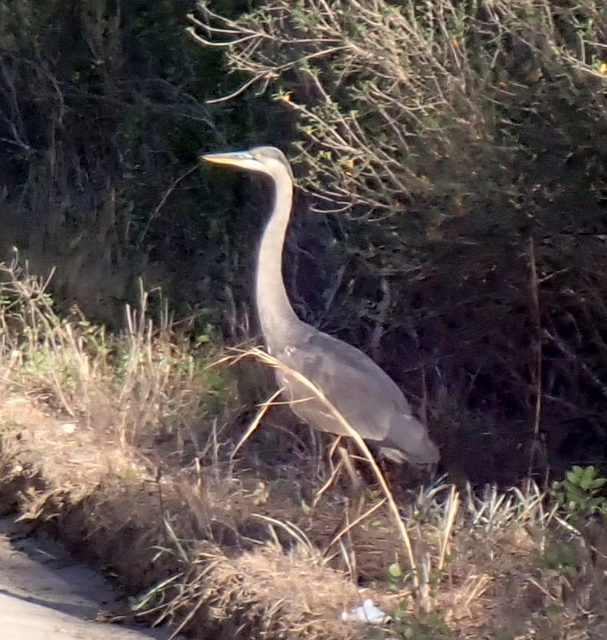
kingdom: Animalia
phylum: Chordata
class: Aves
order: Pelecaniformes
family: Ardeidae
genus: Ardea
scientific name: Ardea herodias
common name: Great blue heron
